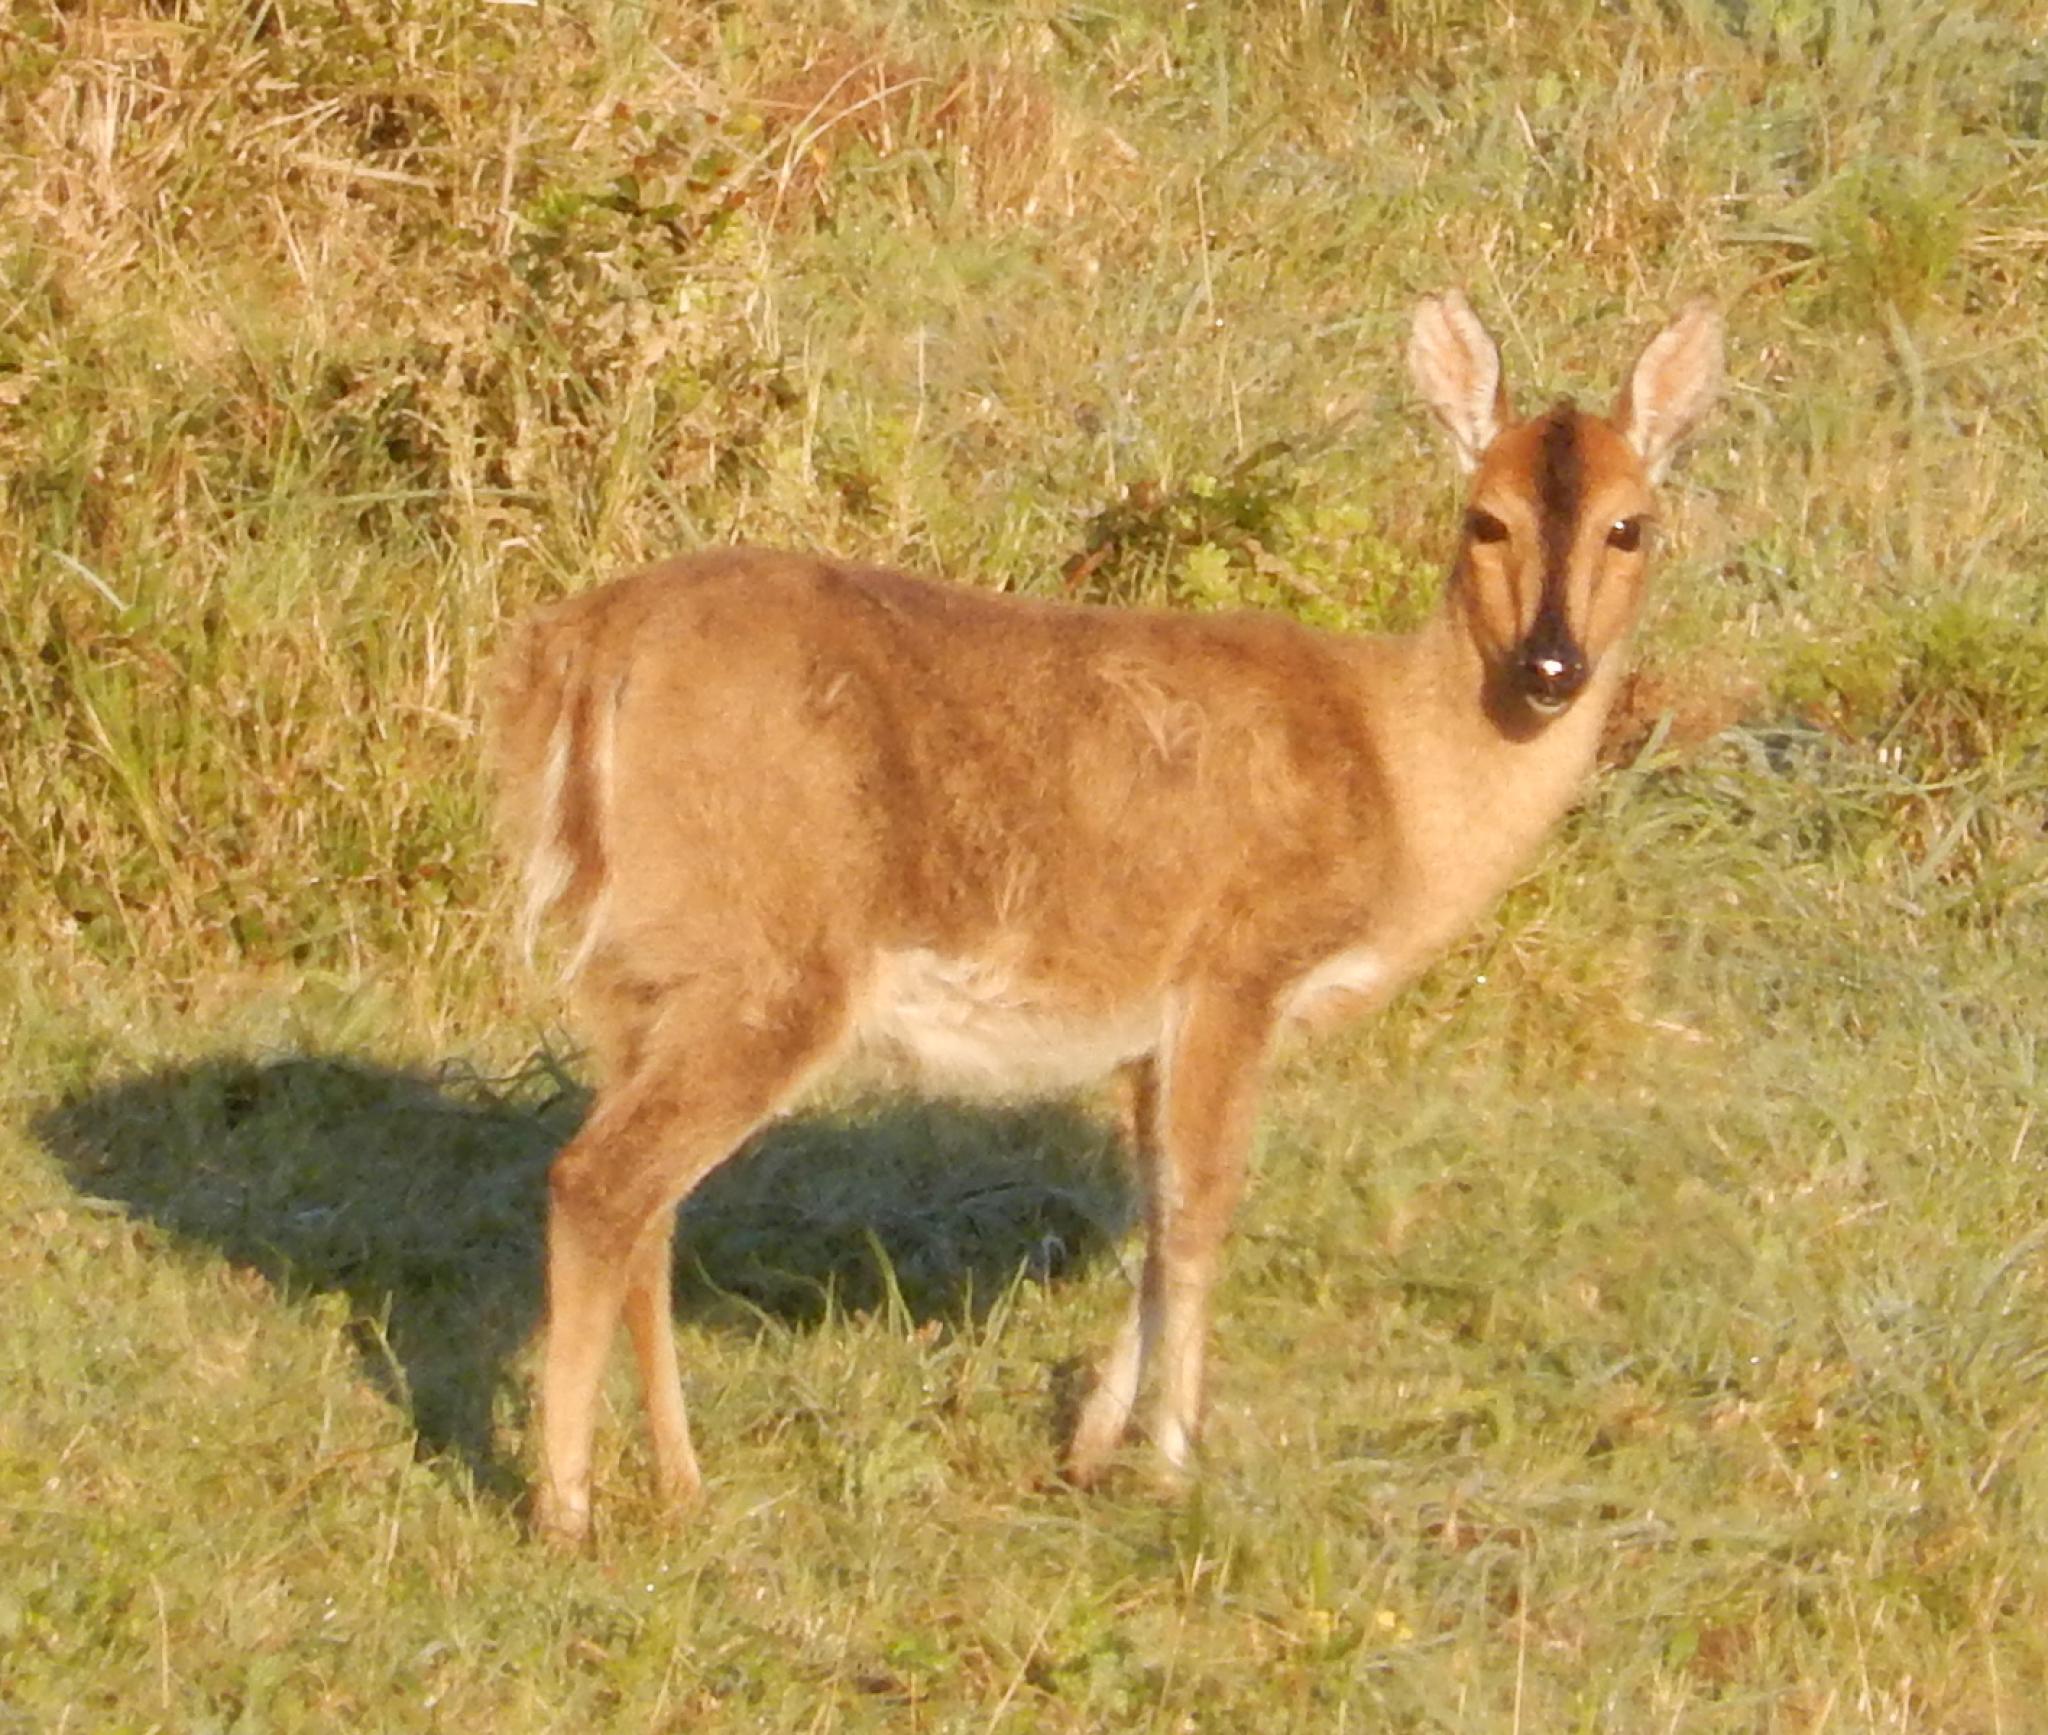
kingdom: Animalia
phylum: Chordata
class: Mammalia
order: Artiodactyla
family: Bovidae
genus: Sylvicapra
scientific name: Sylvicapra grimmia
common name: Bush duiker
